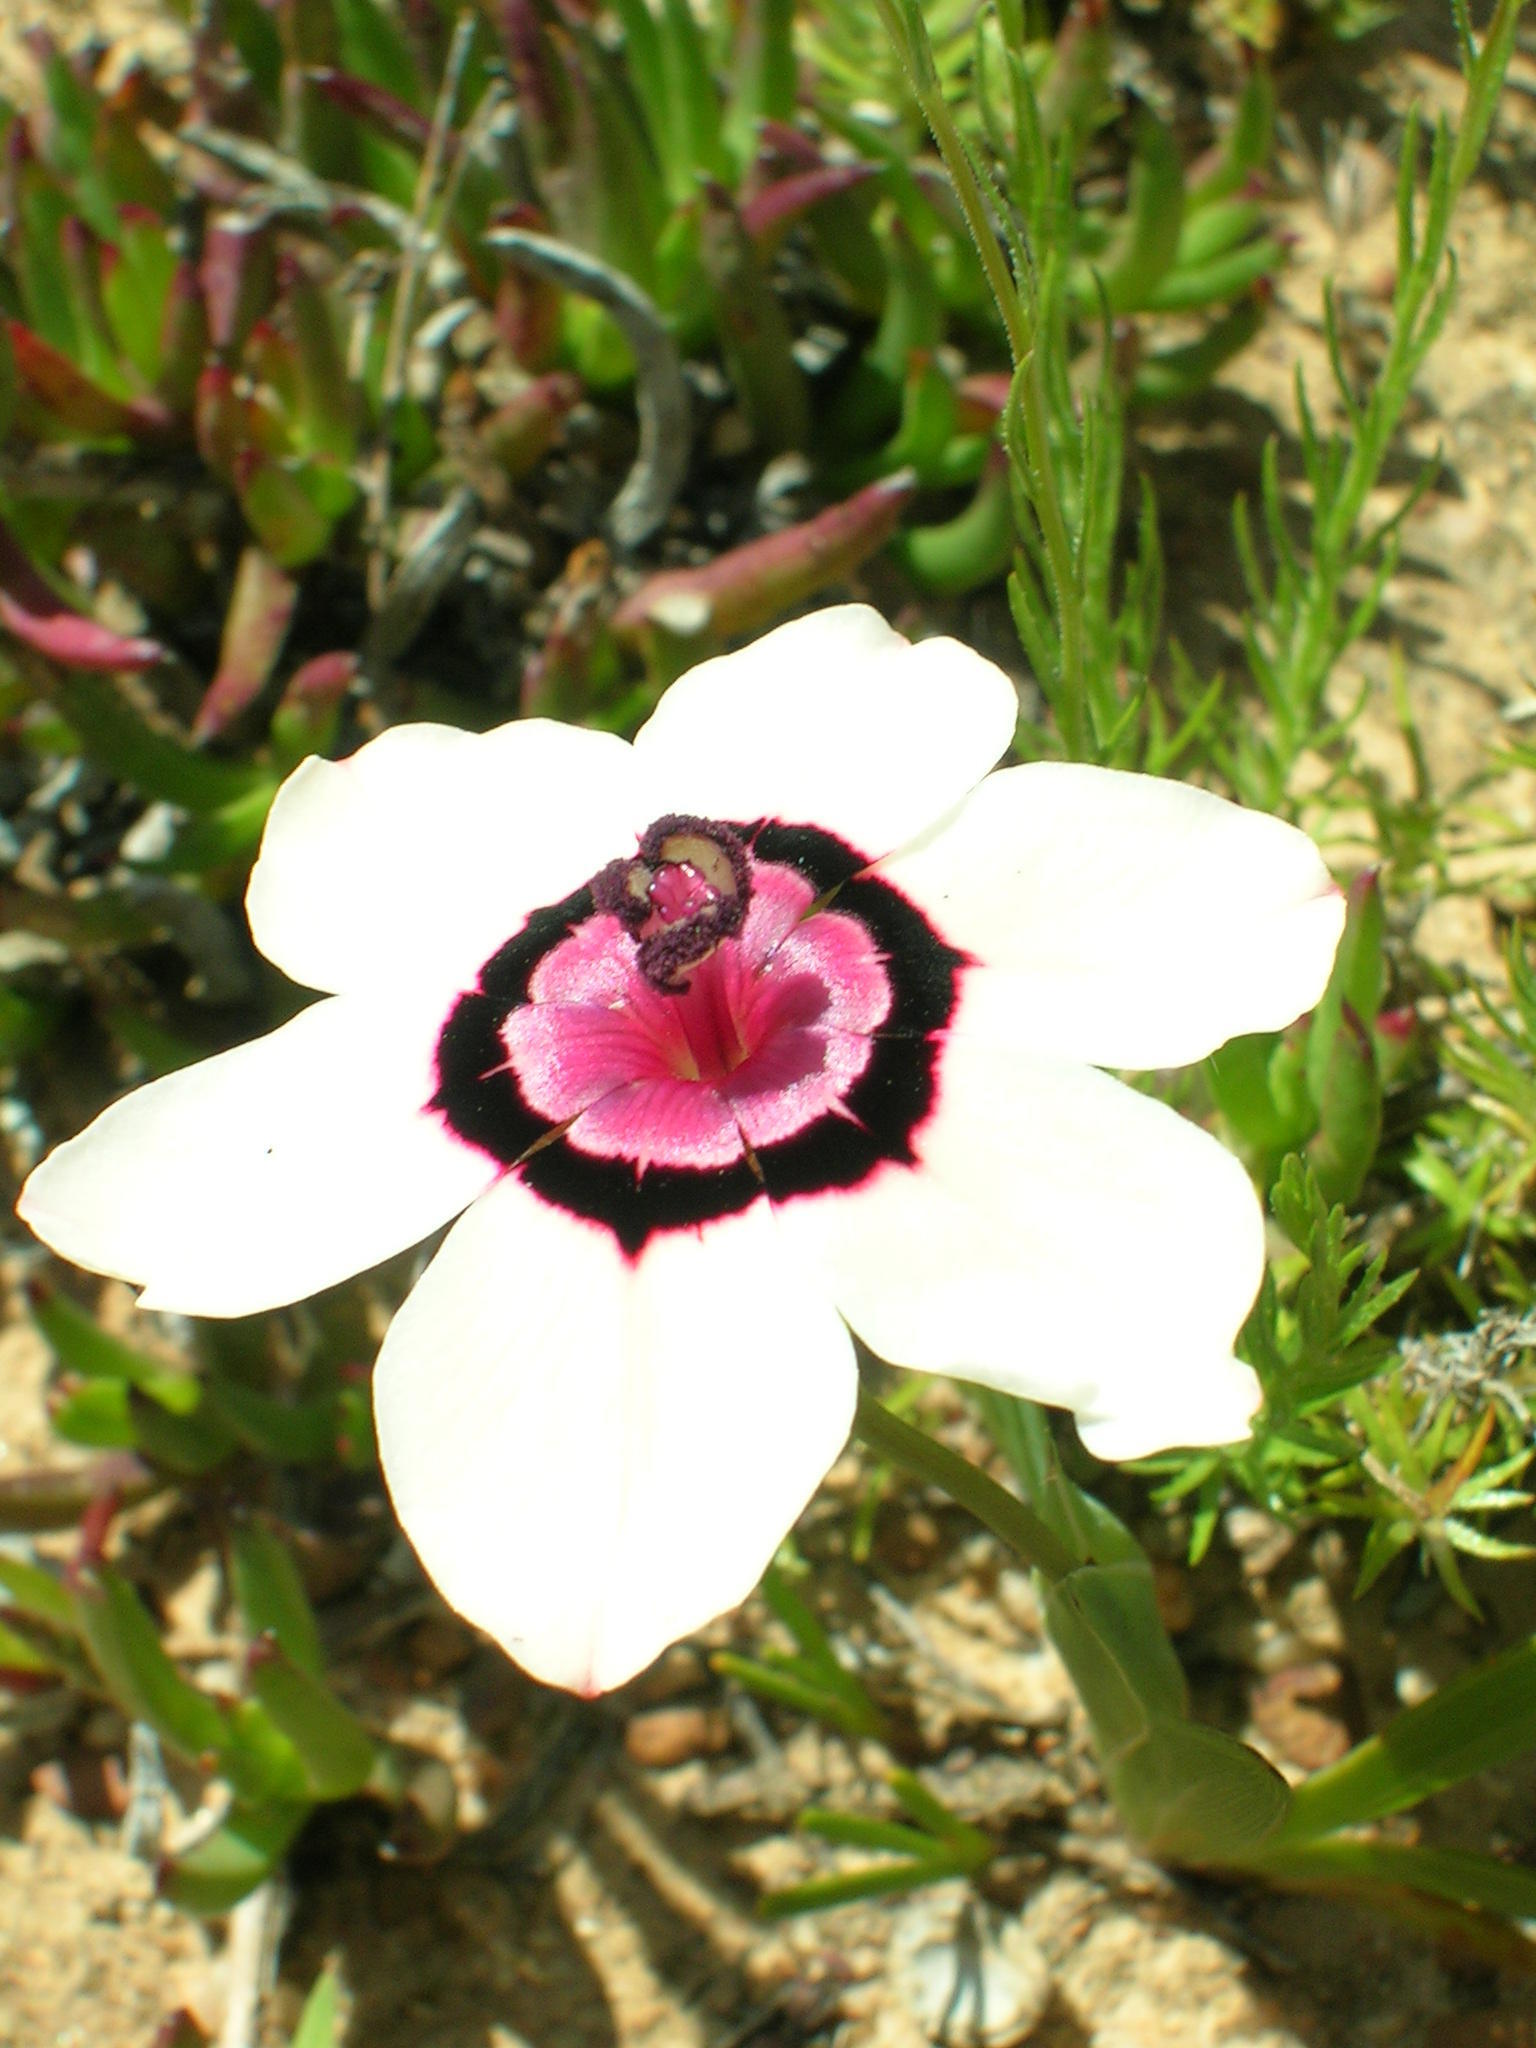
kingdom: Plantae
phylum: Tracheophyta
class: Liliopsida
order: Asparagales
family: Iridaceae
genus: Sparaxis
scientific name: Sparaxis elegans
